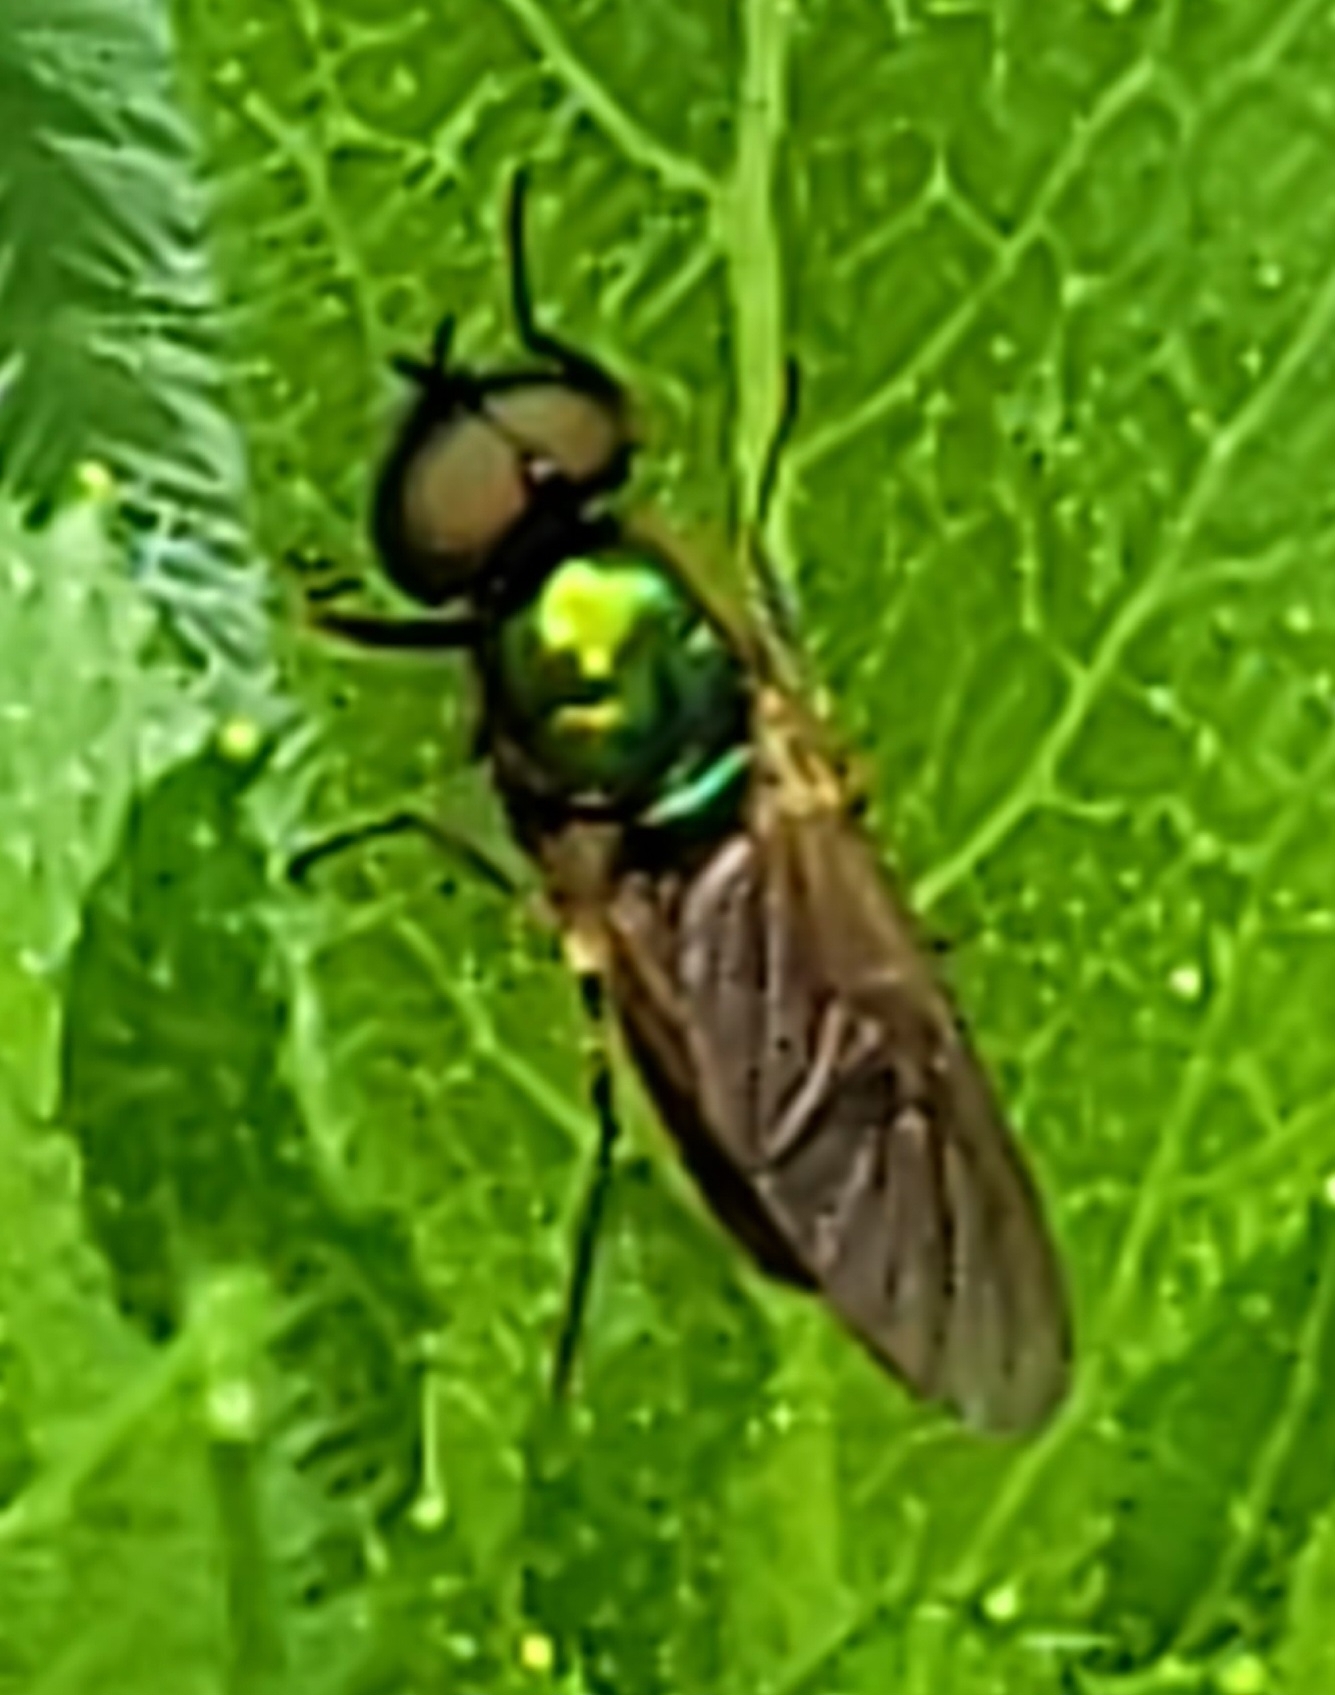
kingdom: Animalia
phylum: Arthropoda
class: Insecta
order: Diptera
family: Stratiomyidae
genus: Chloromyia
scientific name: Chloromyia formosa
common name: Soldier fly
